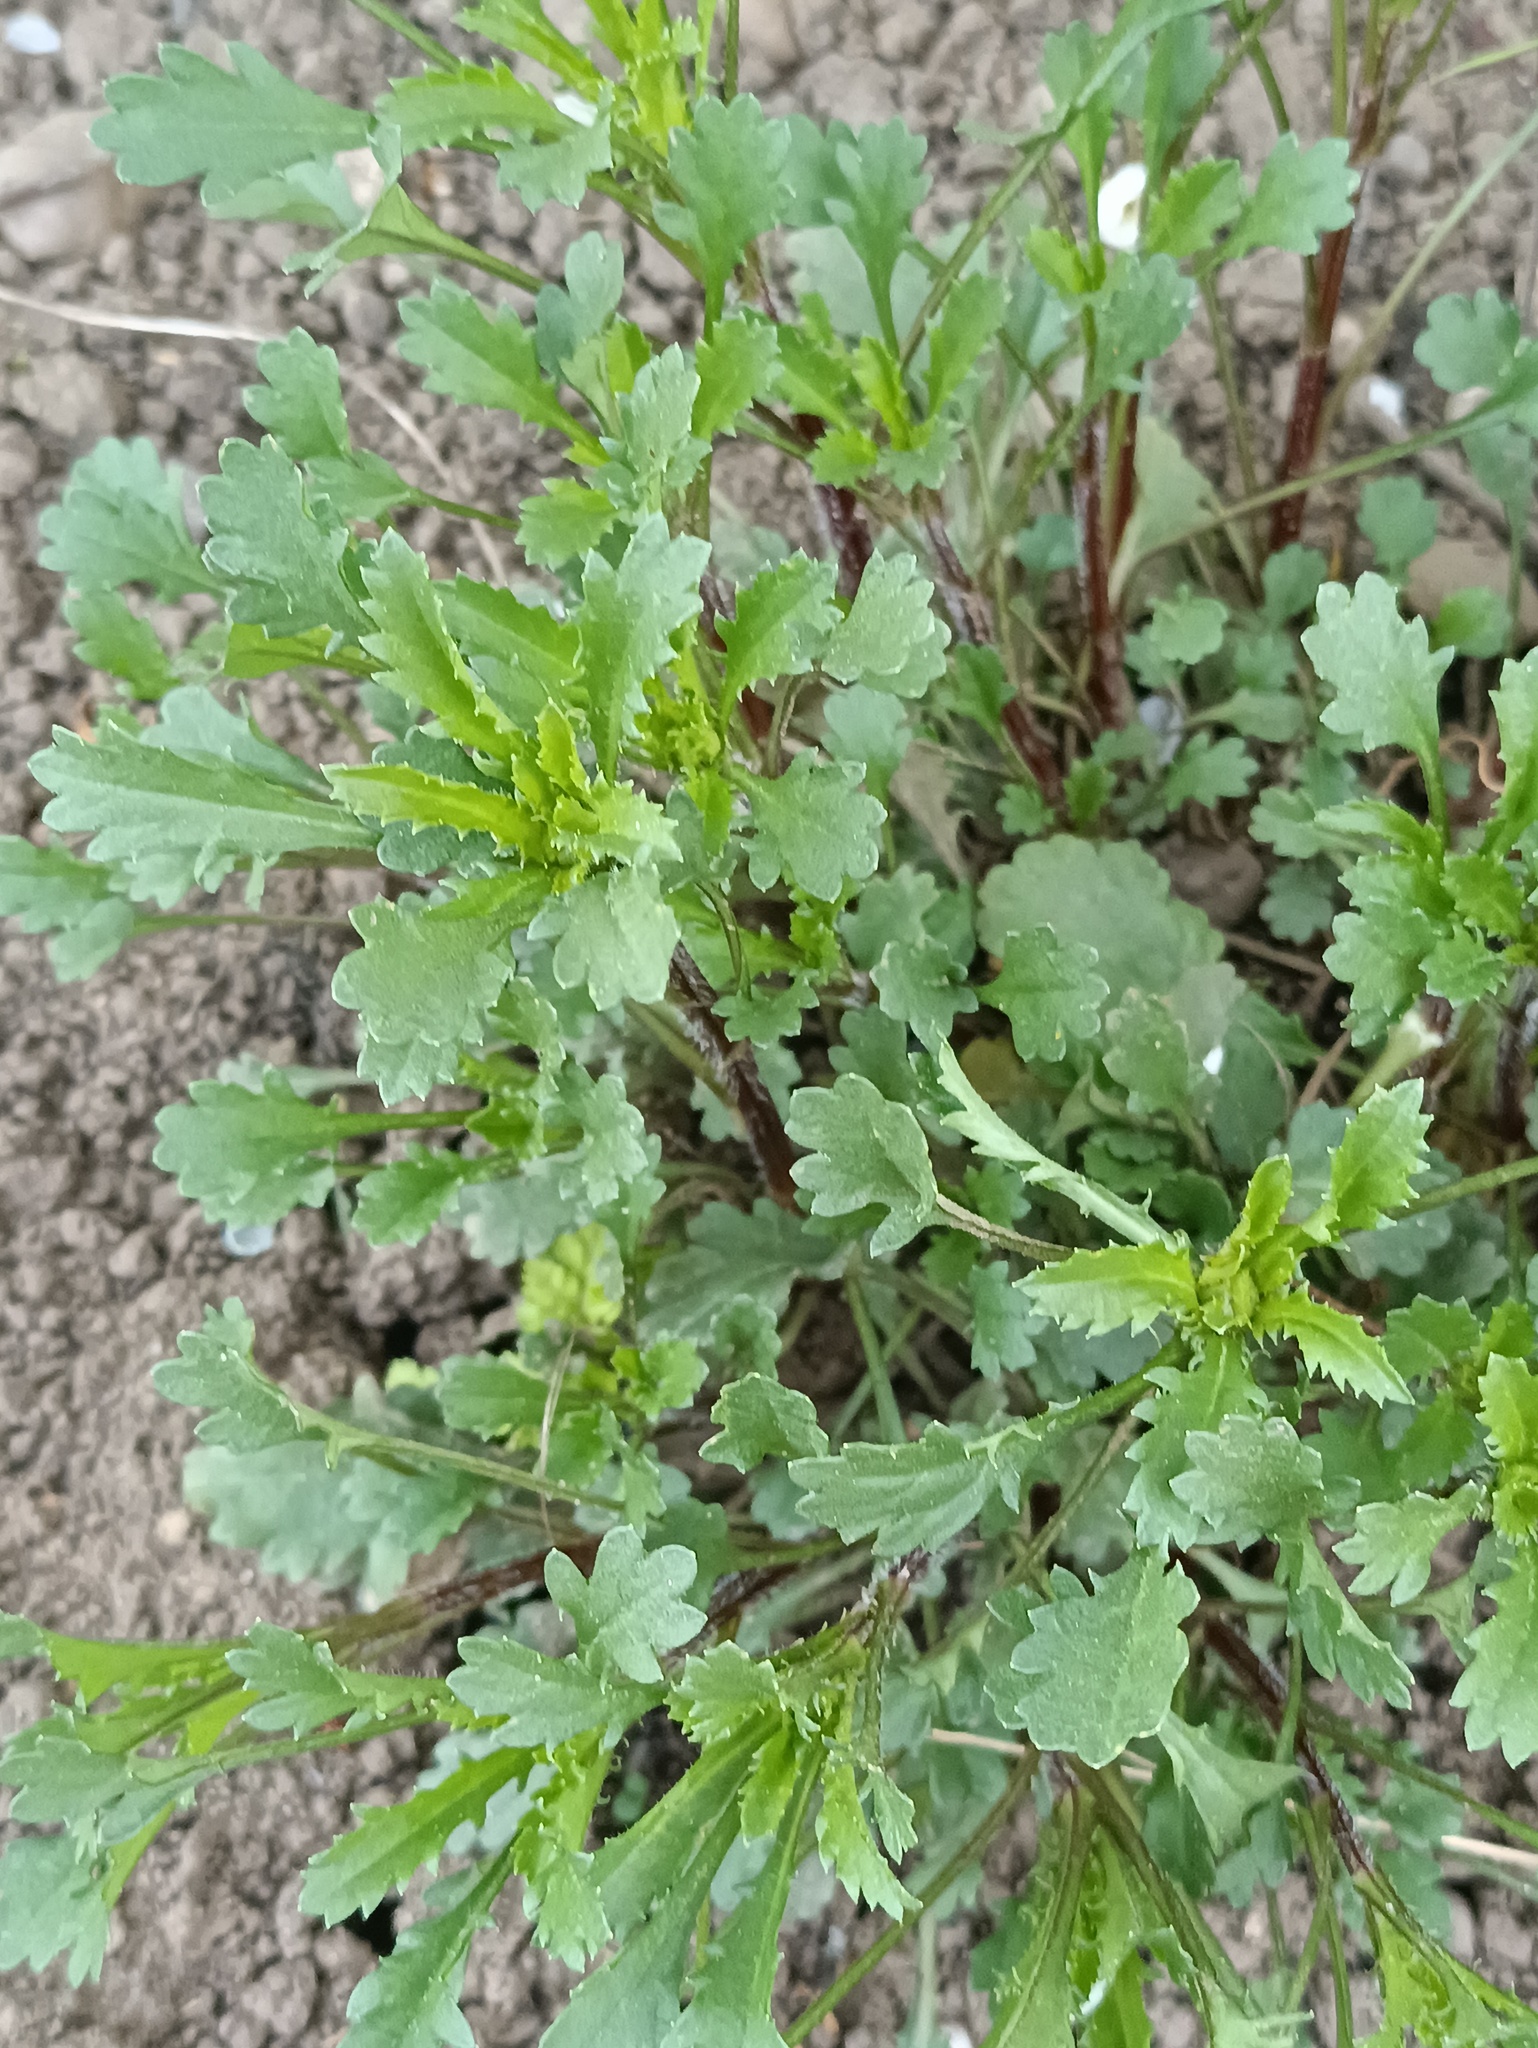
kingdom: Plantae
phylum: Tracheophyta
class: Magnoliopsida
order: Asterales
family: Asteraceae
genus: Leucanthemum
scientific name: Leucanthemum vulgare
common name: Oxeye daisy
